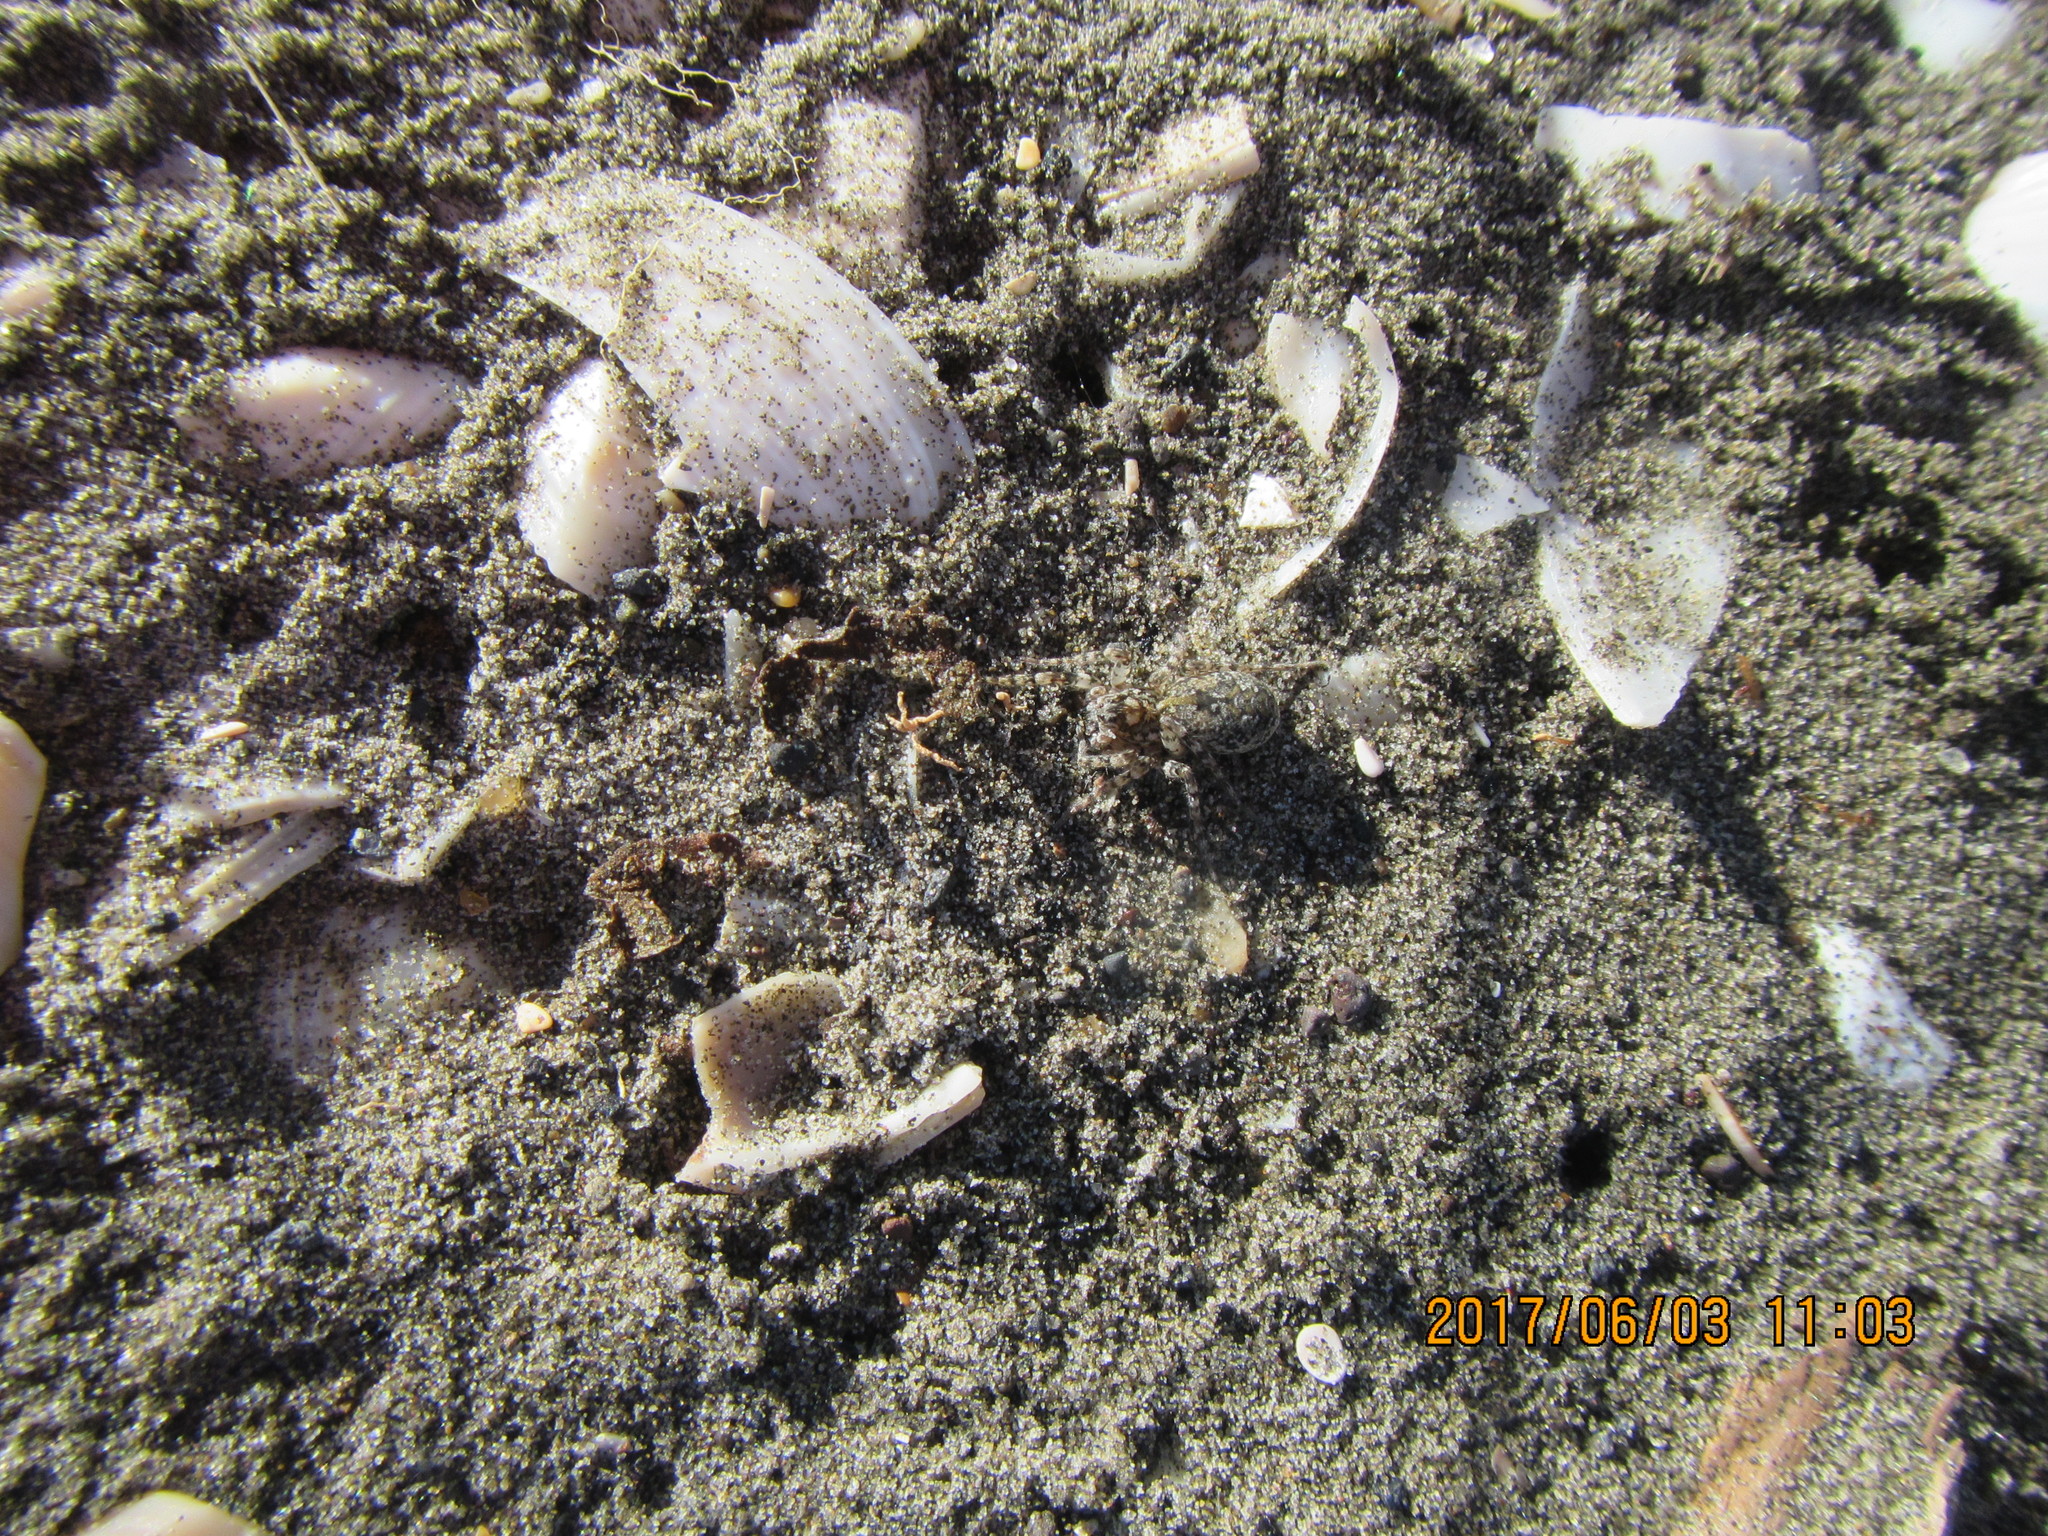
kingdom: Animalia
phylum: Arthropoda
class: Arachnida
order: Araneae
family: Lycosidae
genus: Anoteropsis
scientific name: Anoteropsis litoralis
